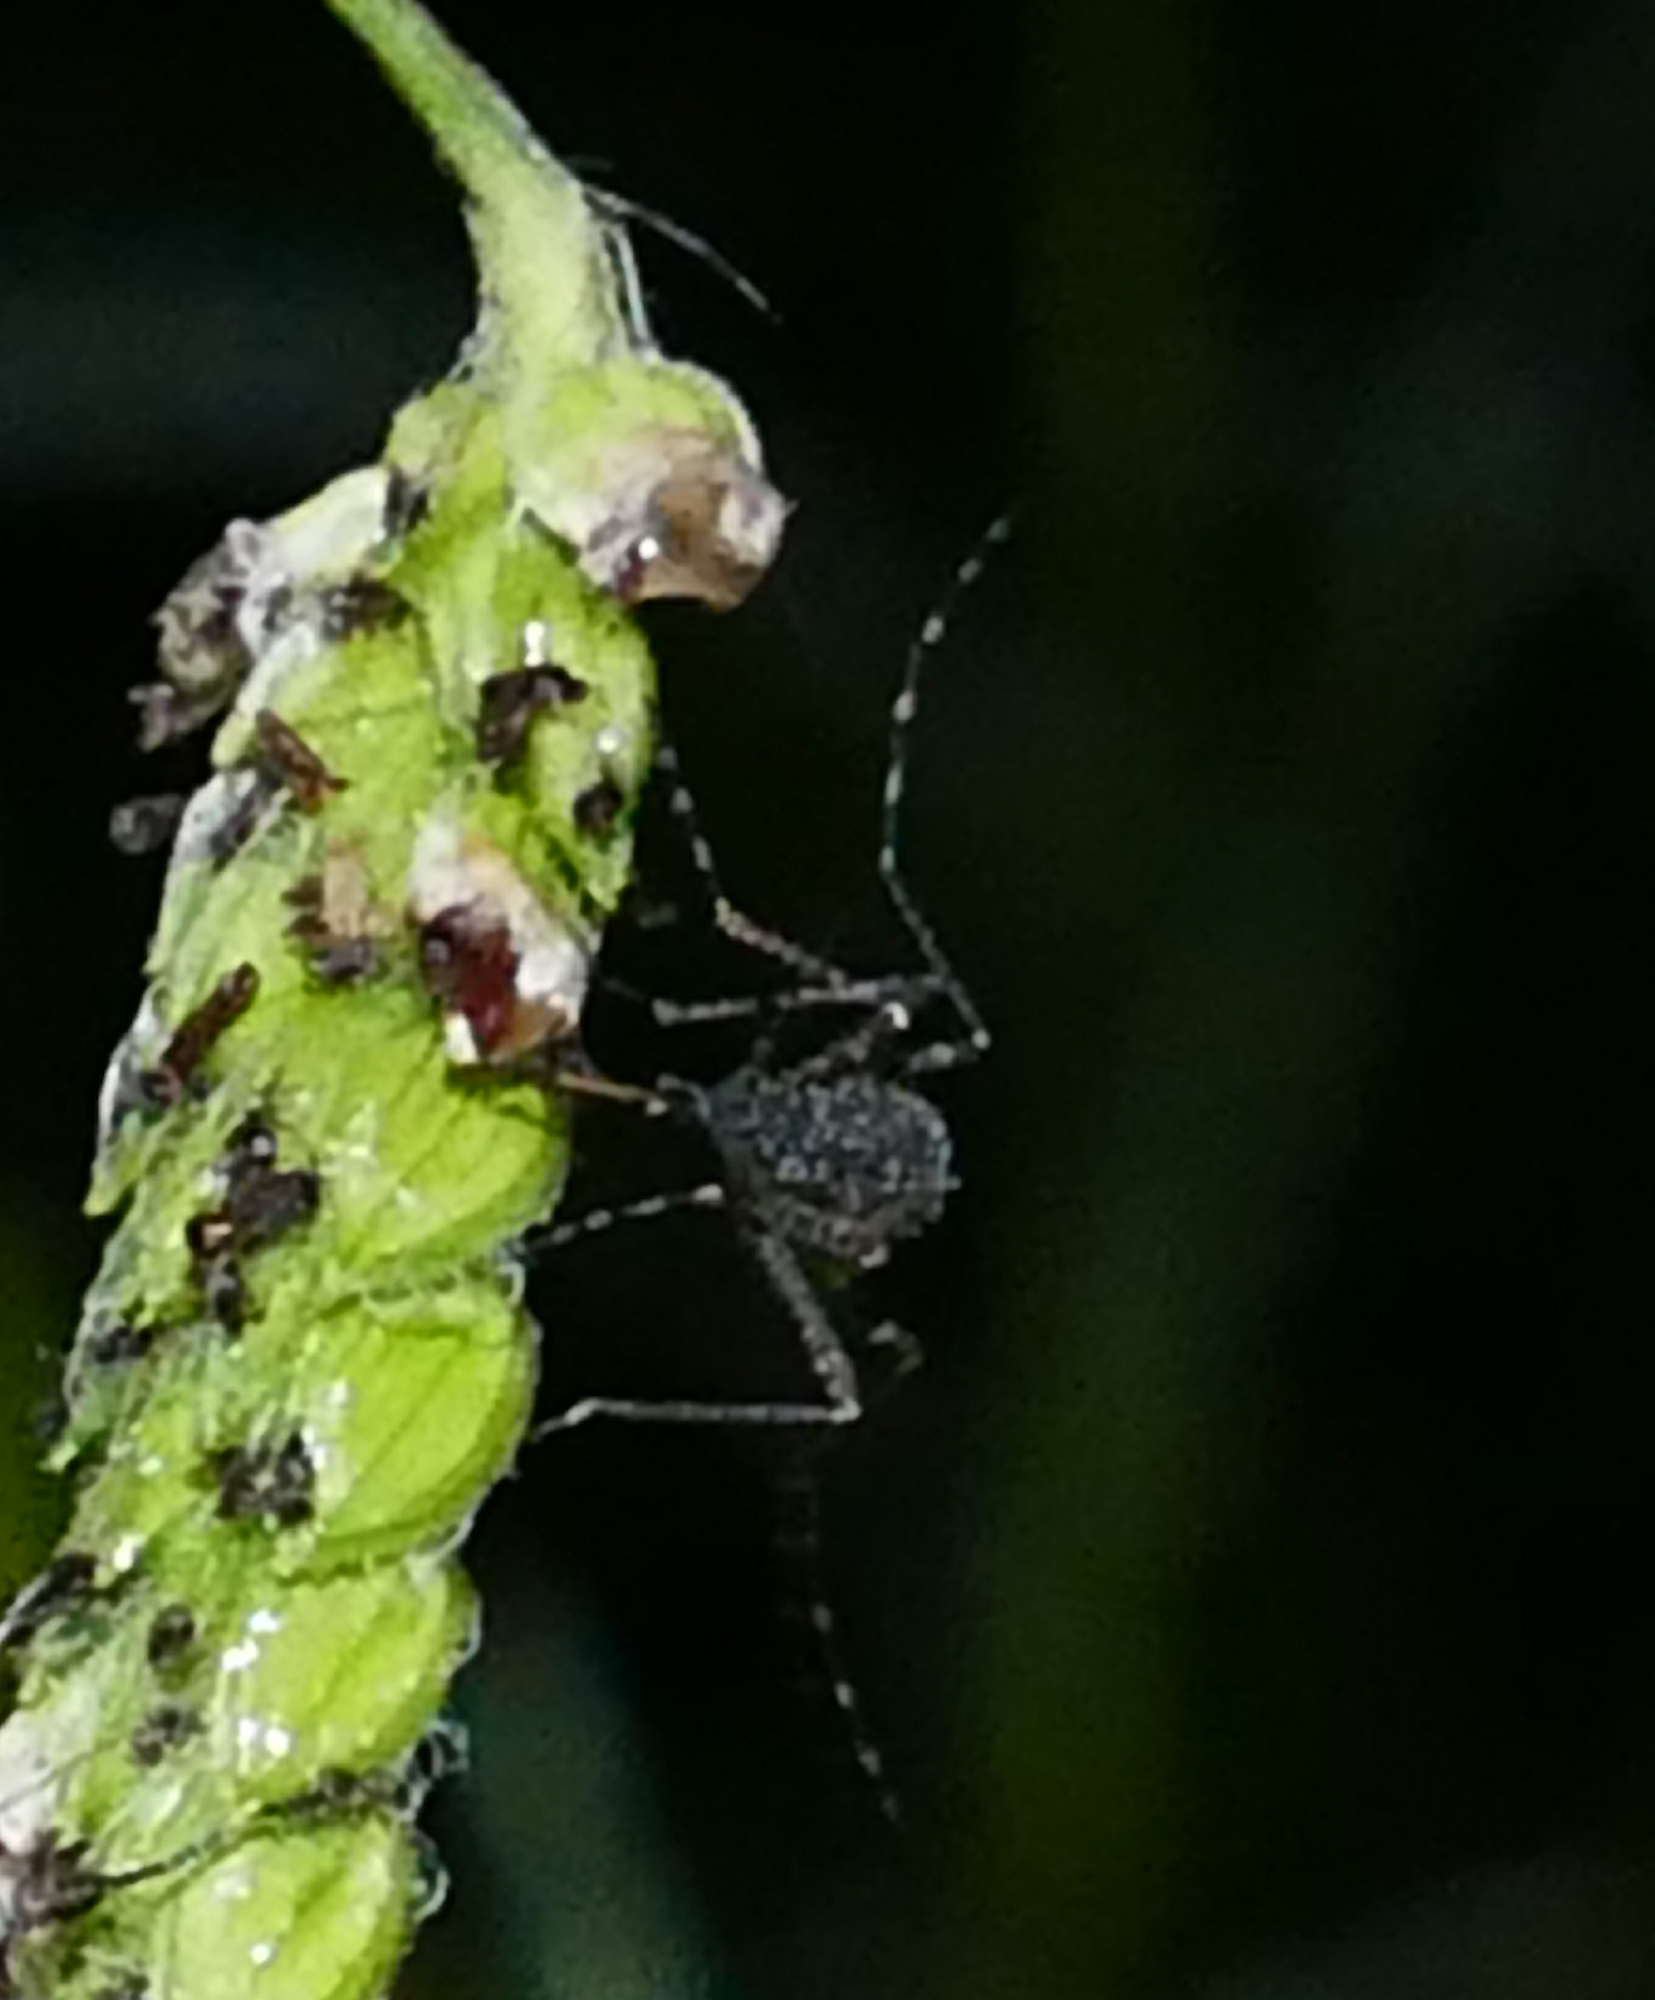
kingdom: Animalia
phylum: Arthropoda
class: Insecta
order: Diptera
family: Culicidae
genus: Psorophora
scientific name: Psorophora columbiae
